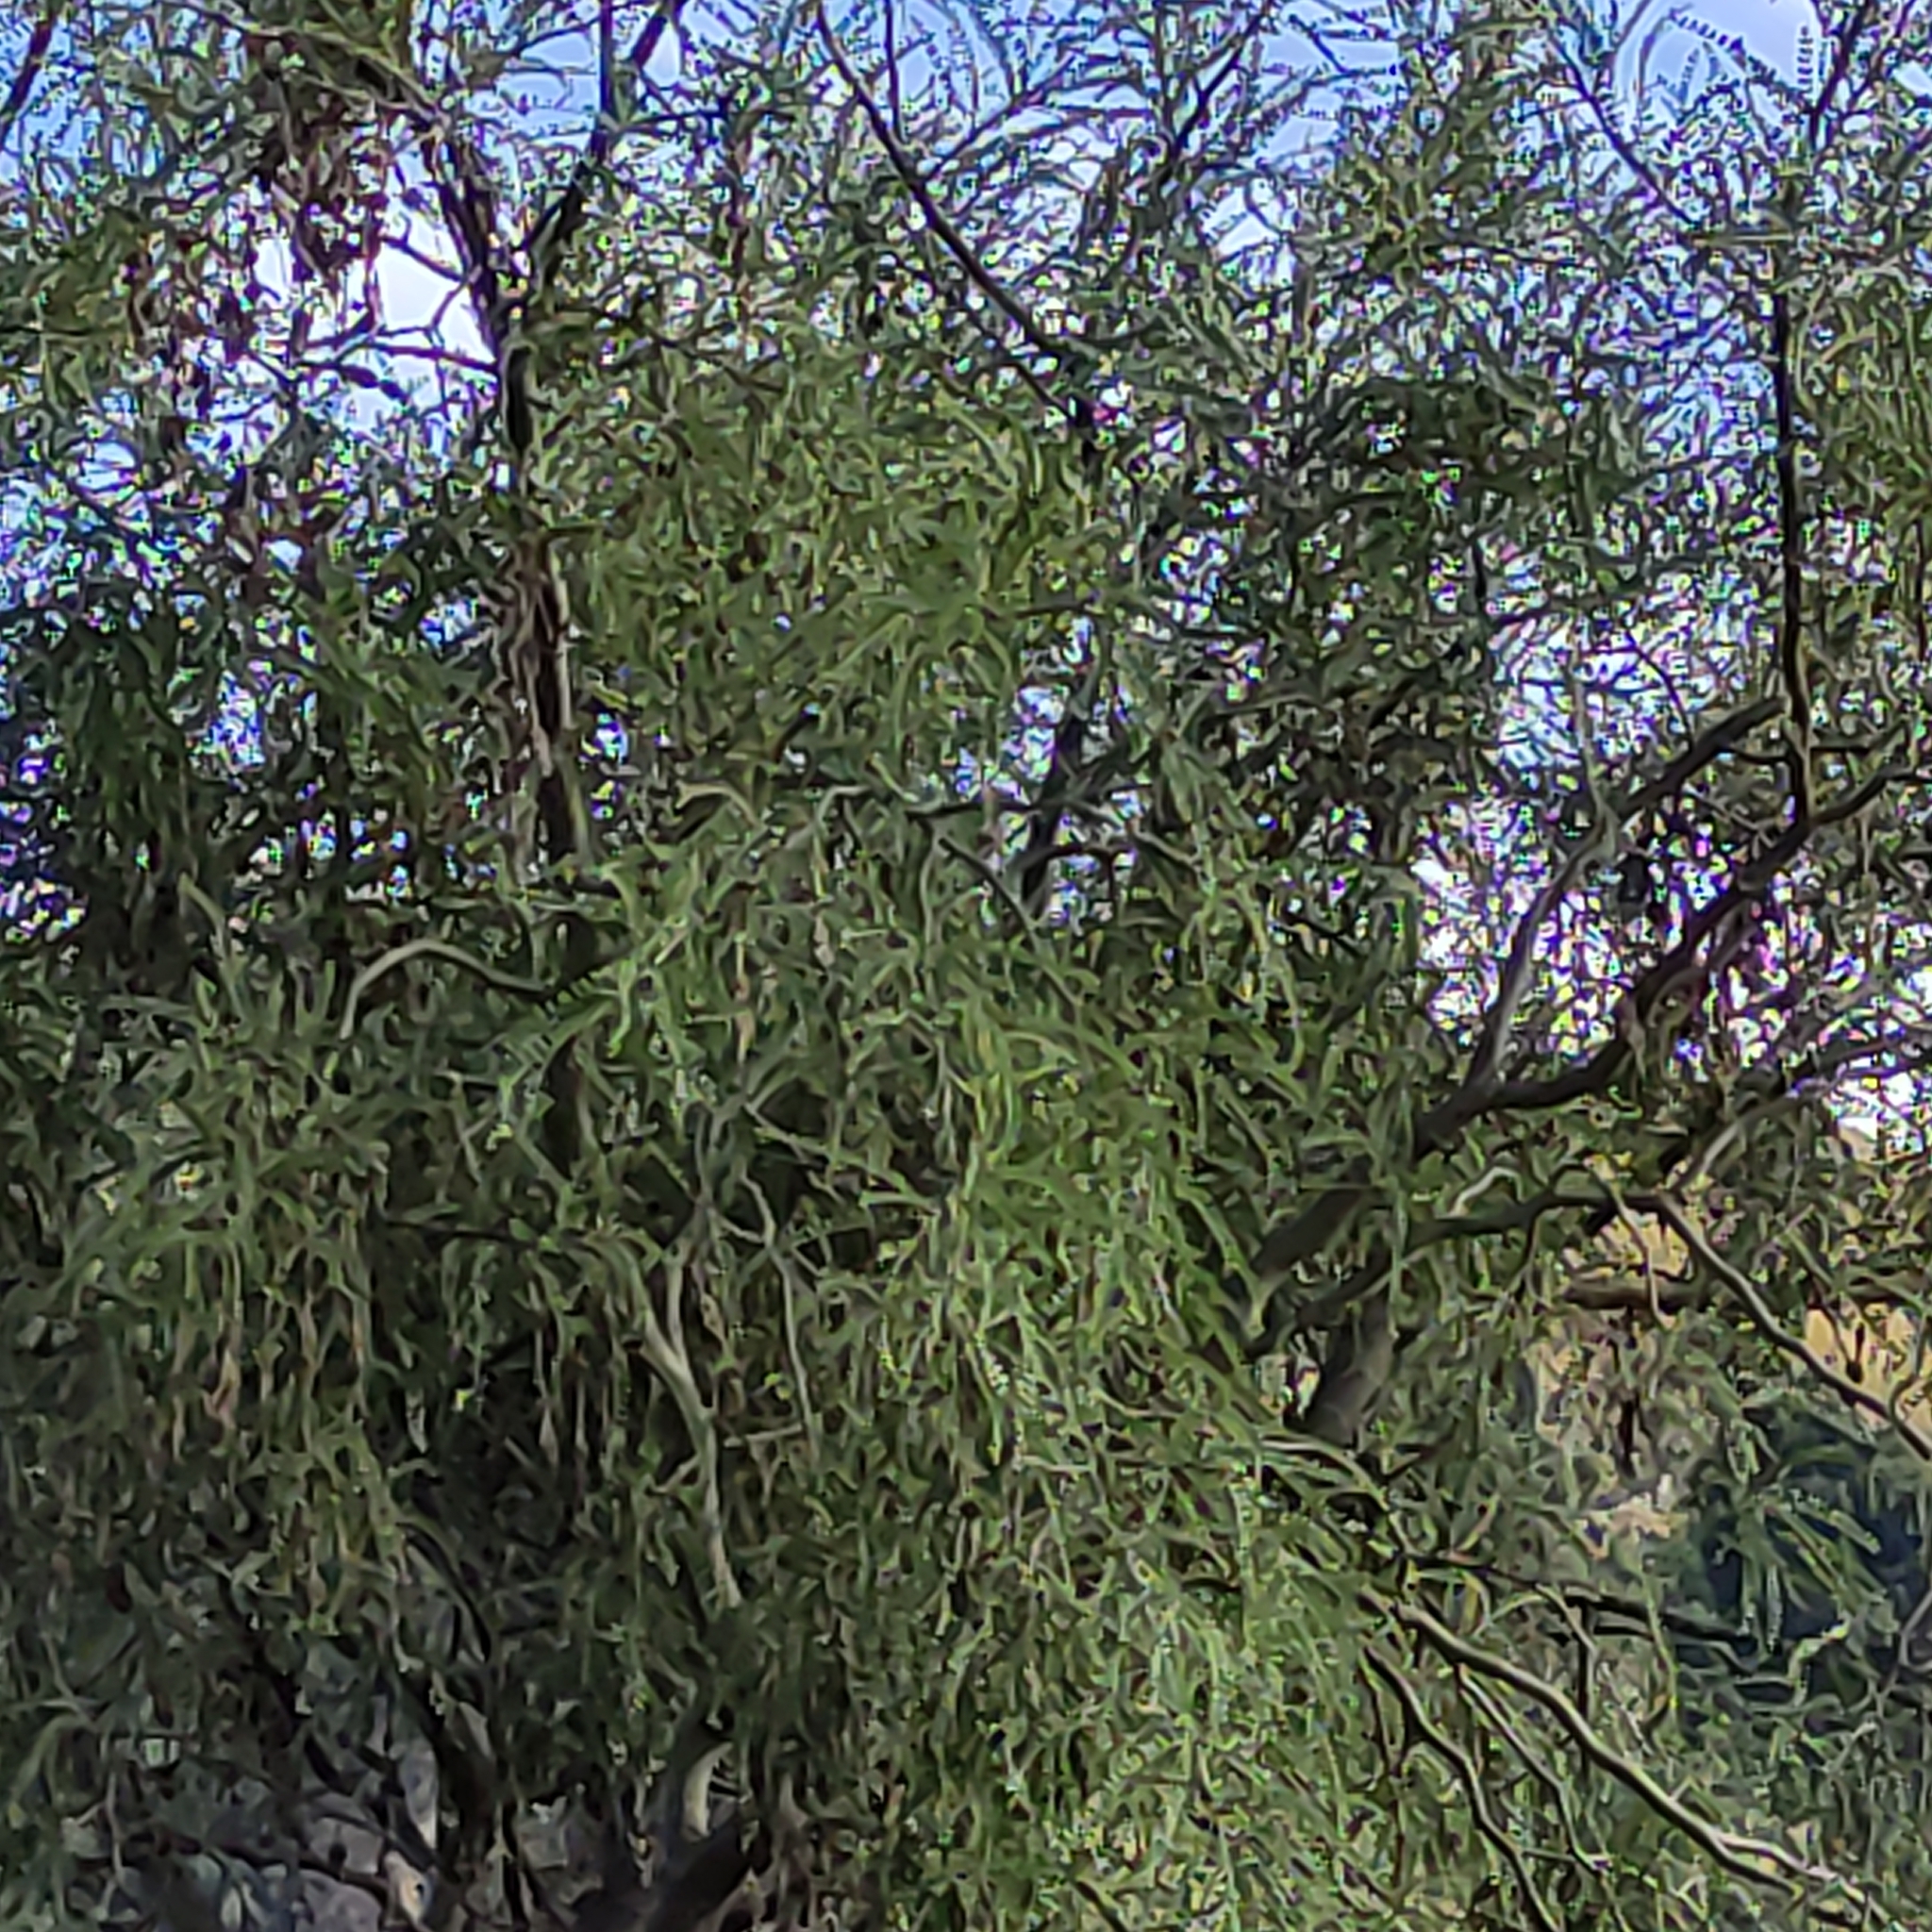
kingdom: Plantae
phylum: Tracheophyta
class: Magnoliopsida
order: Fabales
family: Fabaceae
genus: Sophora
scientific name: Sophora microphylla
